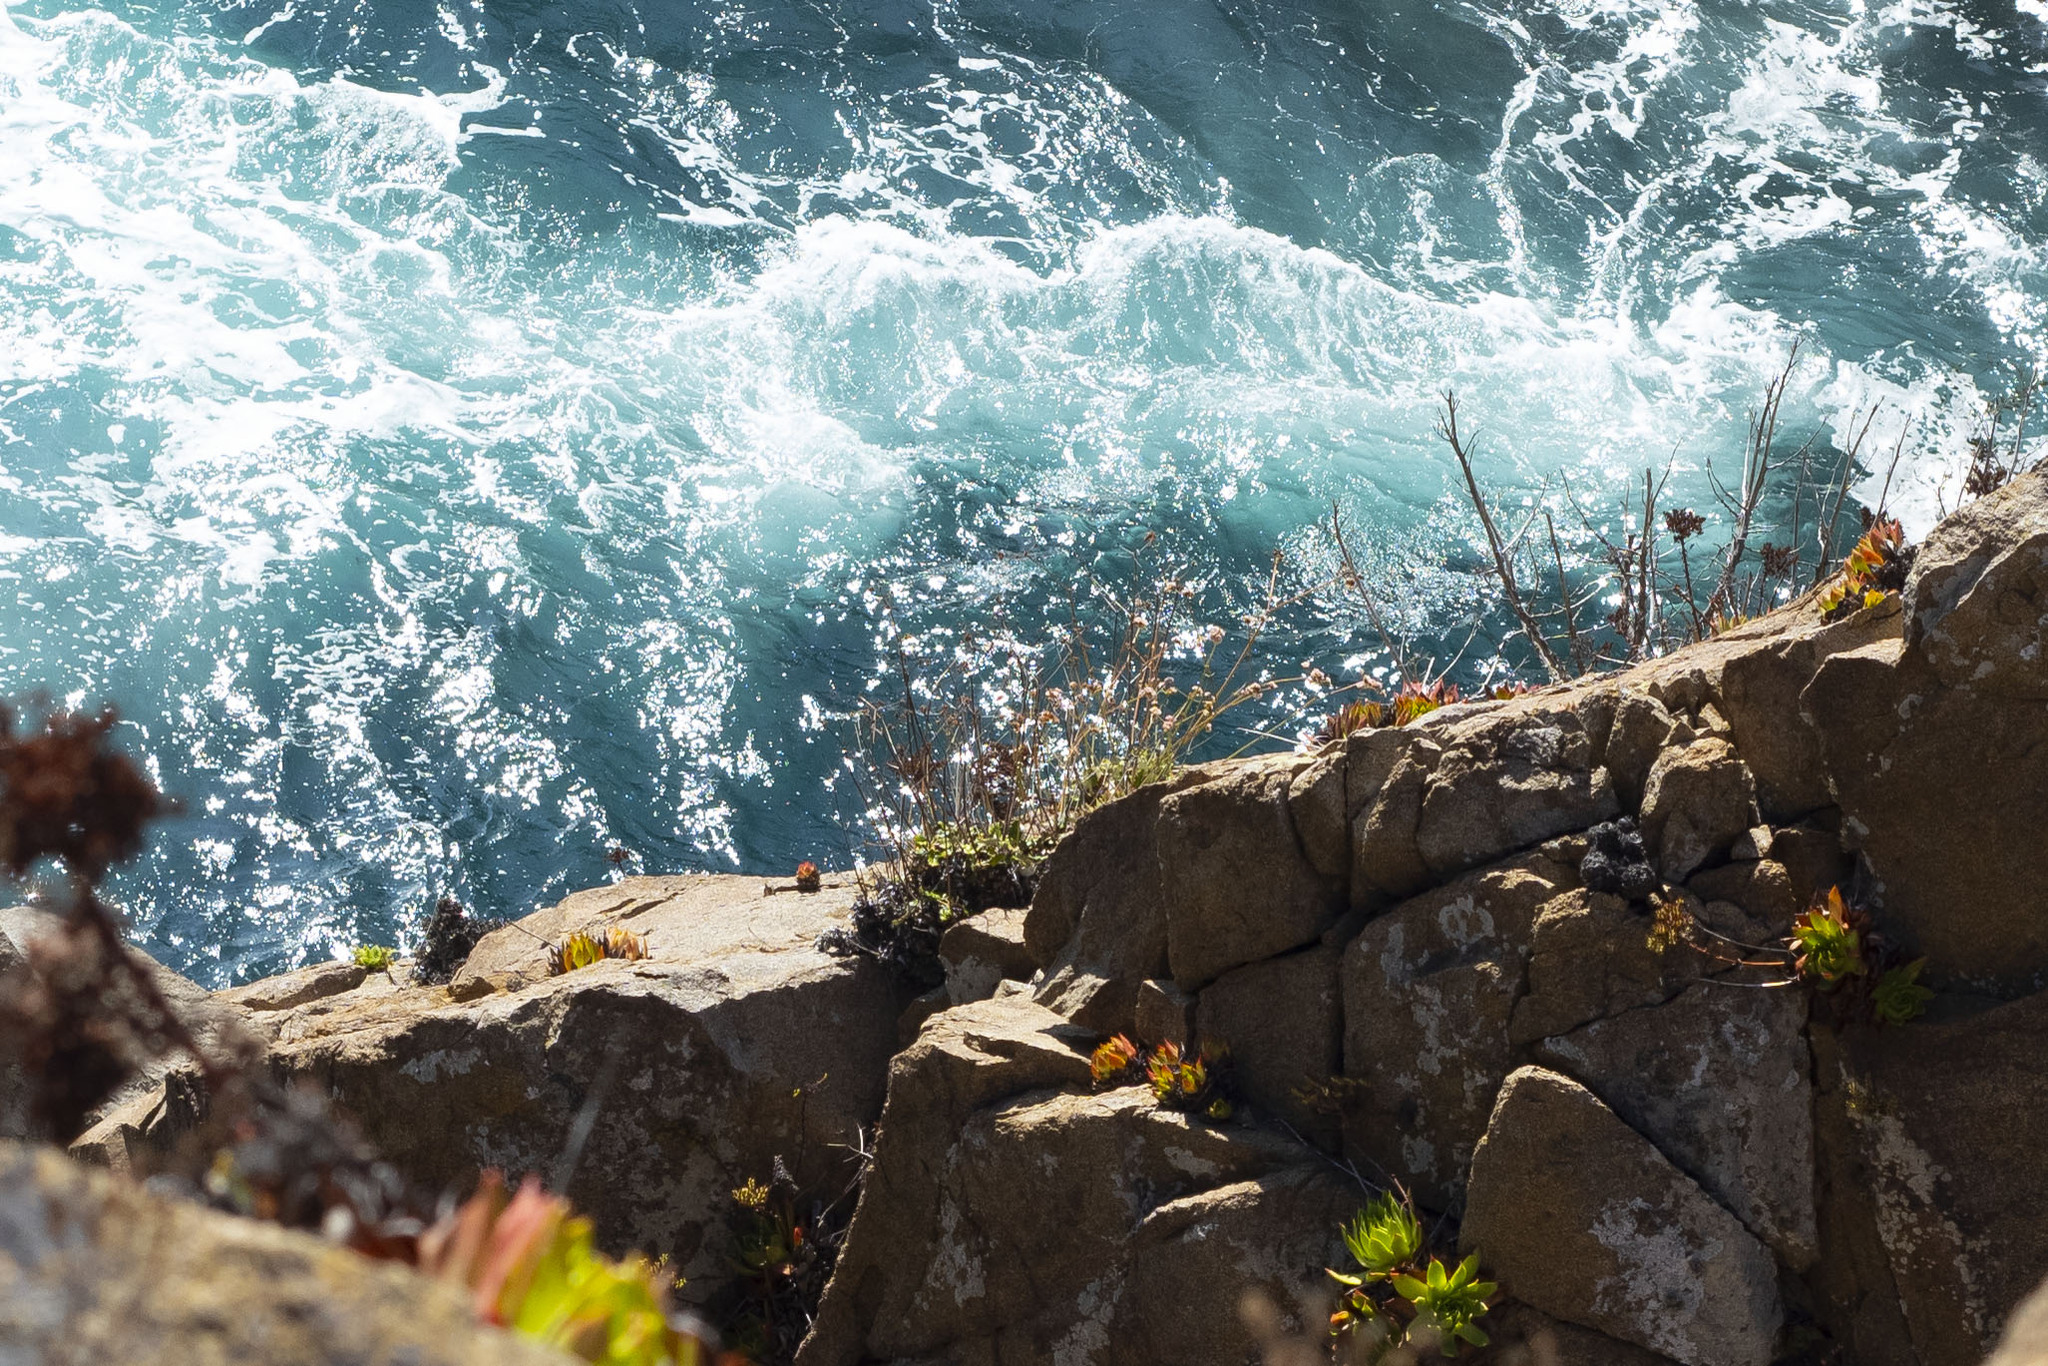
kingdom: Plantae
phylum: Tracheophyta
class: Magnoliopsida
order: Saxifragales
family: Crassulaceae
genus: Dudleya
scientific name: Dudleya
